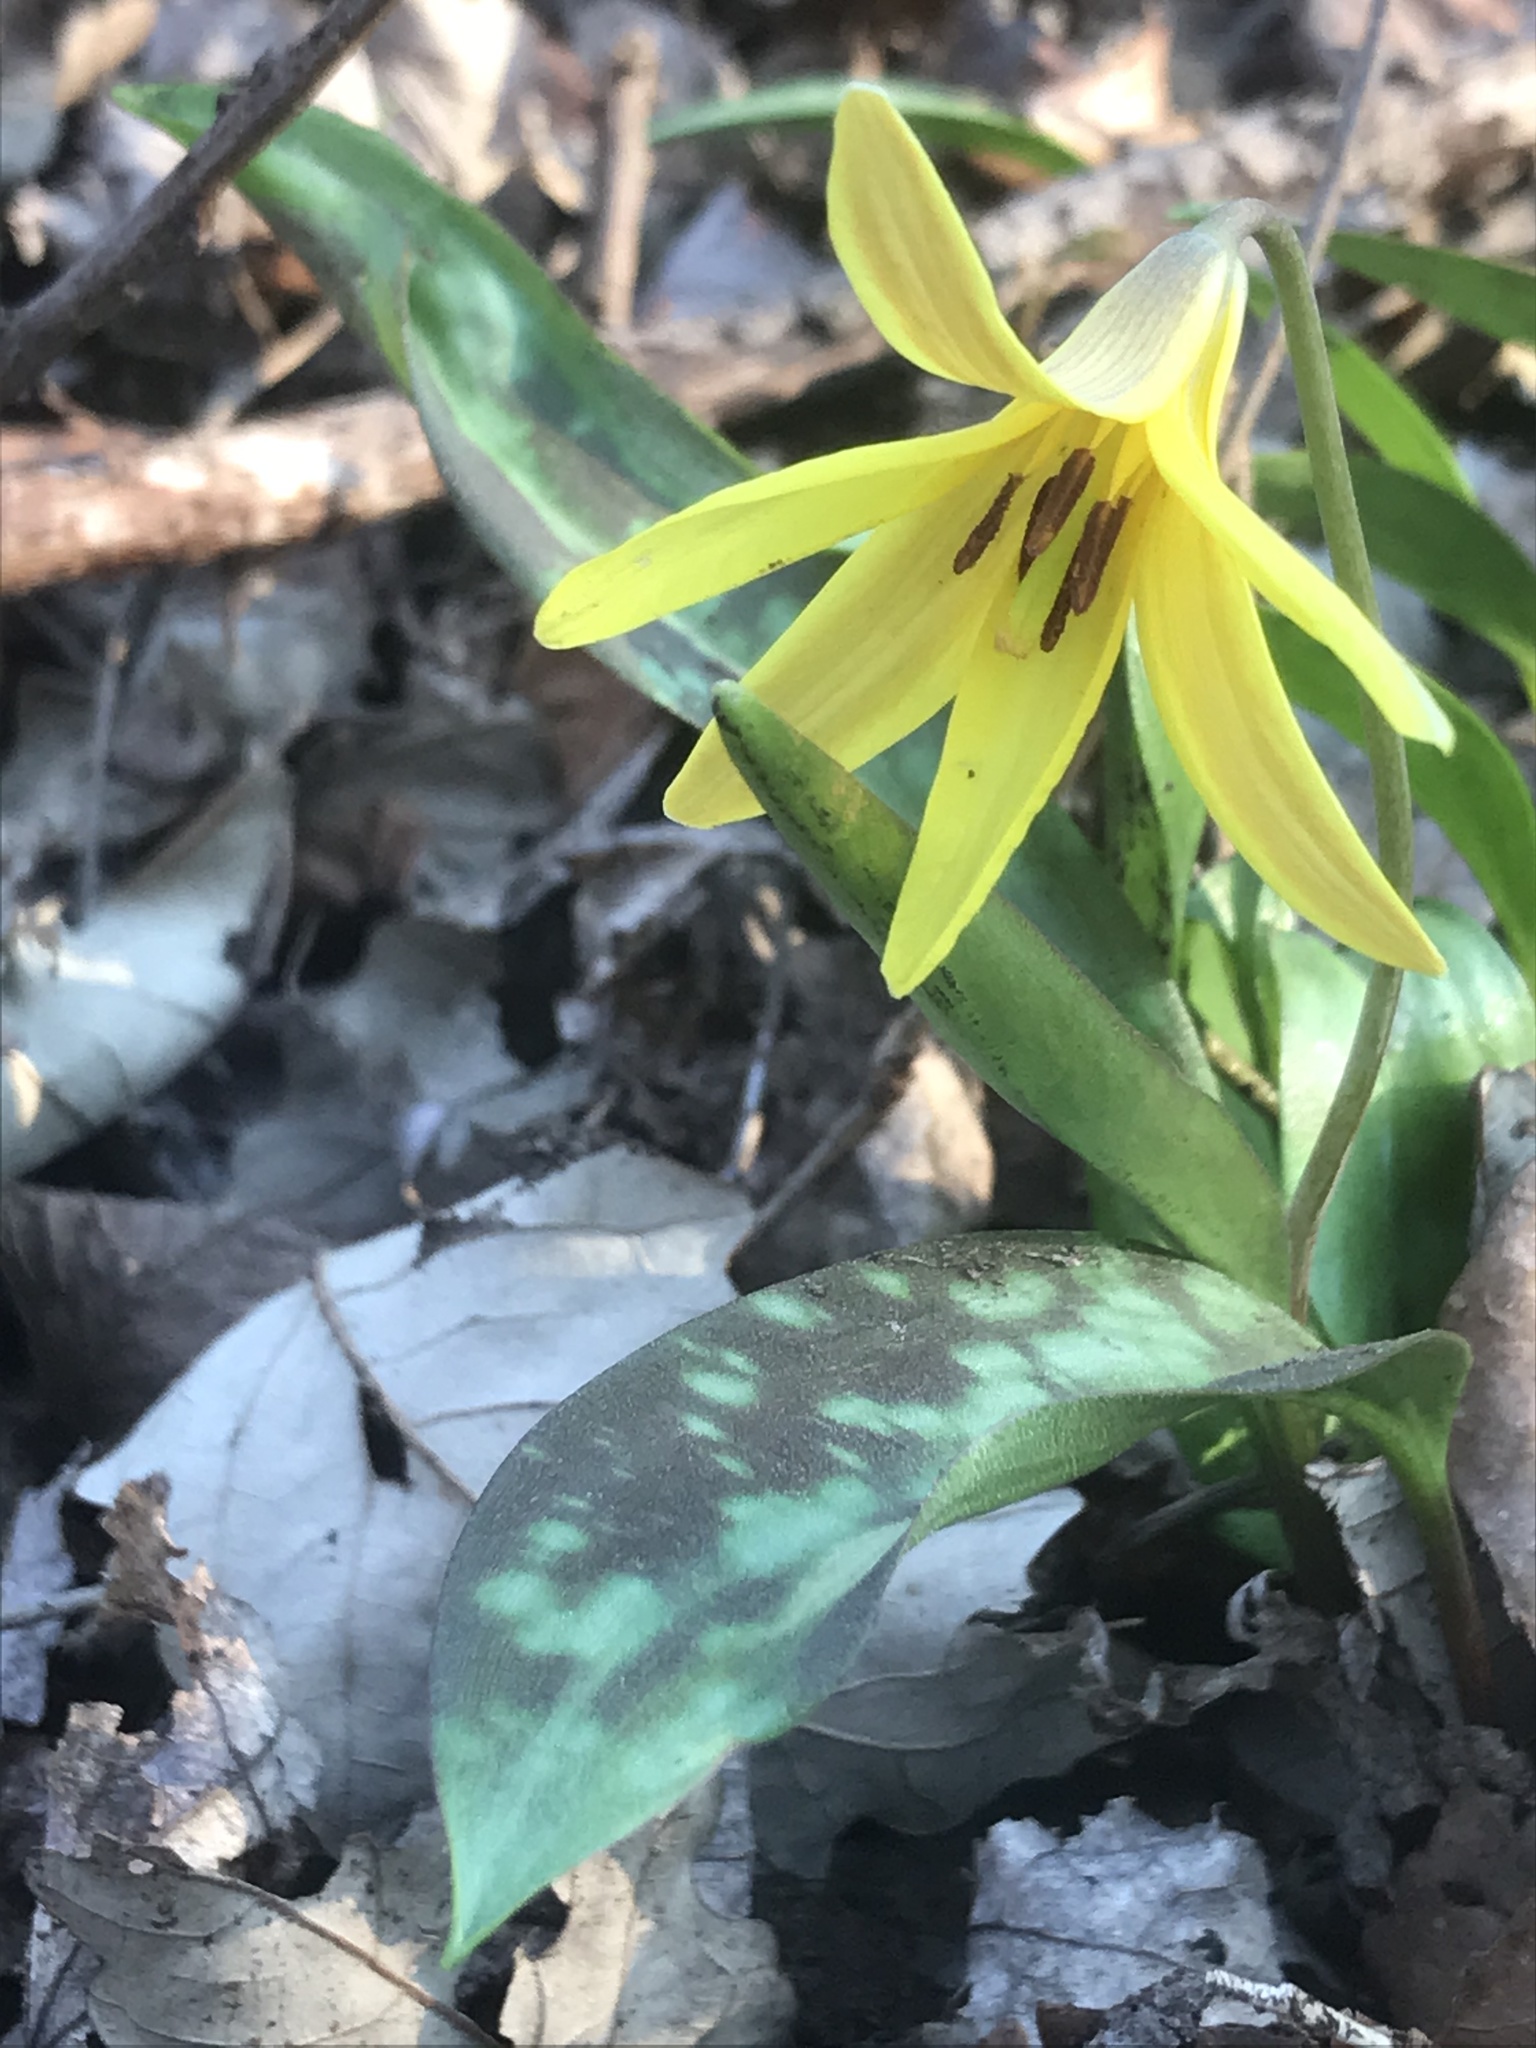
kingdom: Plantae
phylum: Tracheophyta
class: Liliopsida
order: Liliales
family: Liliaceae
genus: Erythronium
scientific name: Erythronium americanum
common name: Yellow adder's-tongue
